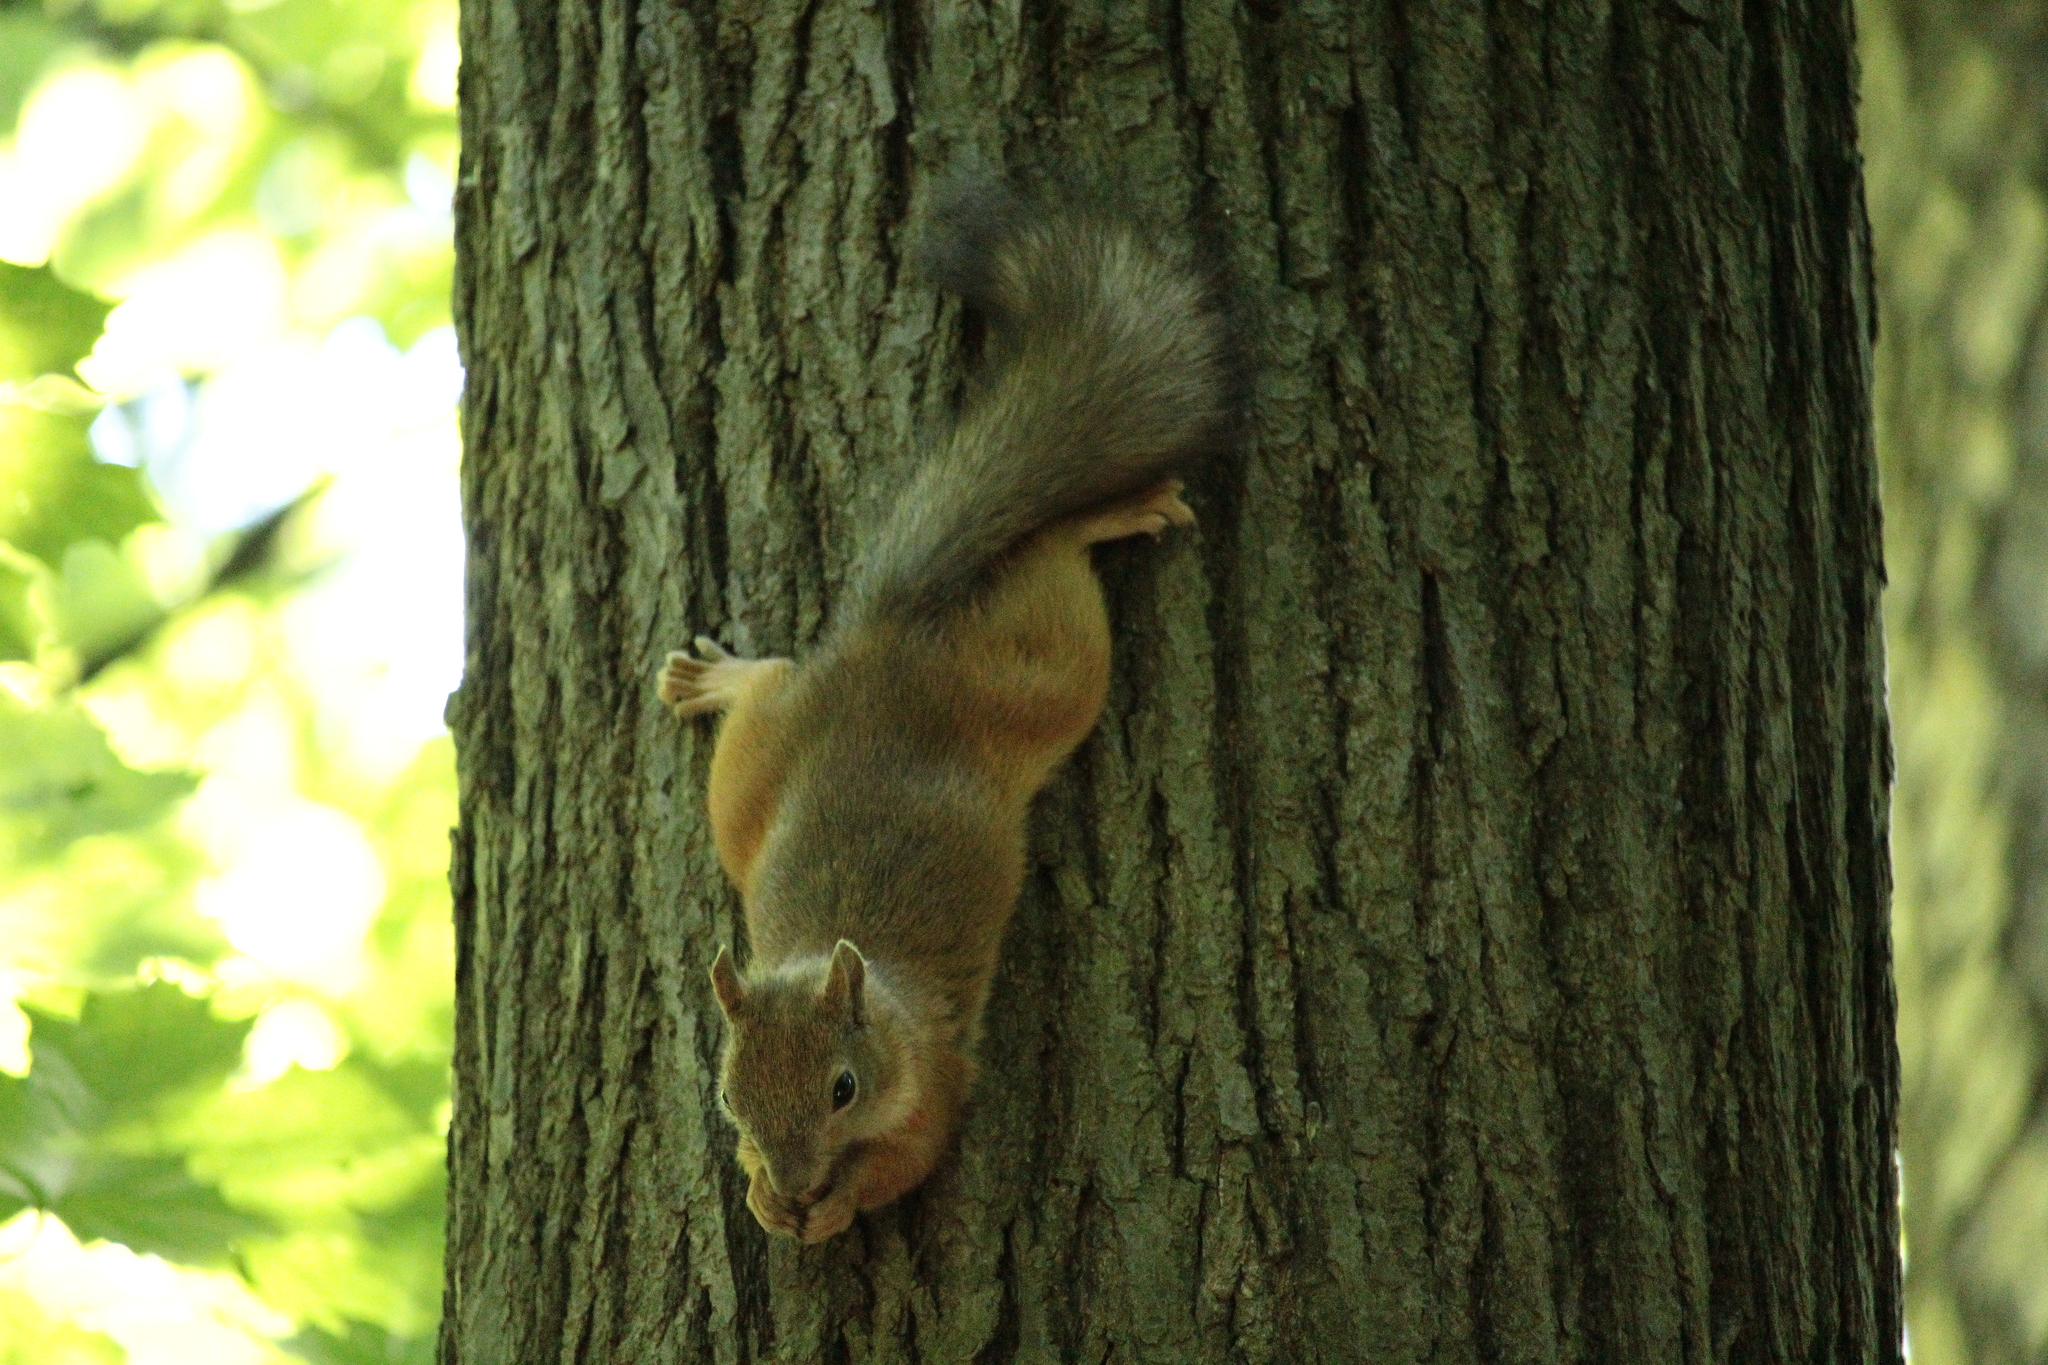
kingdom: Animalia
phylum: Chordata
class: Mammalia
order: Rodentia
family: Sciuridae
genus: Sciurus
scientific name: Sciurus vulgaris
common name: Eurasian red squirrel
